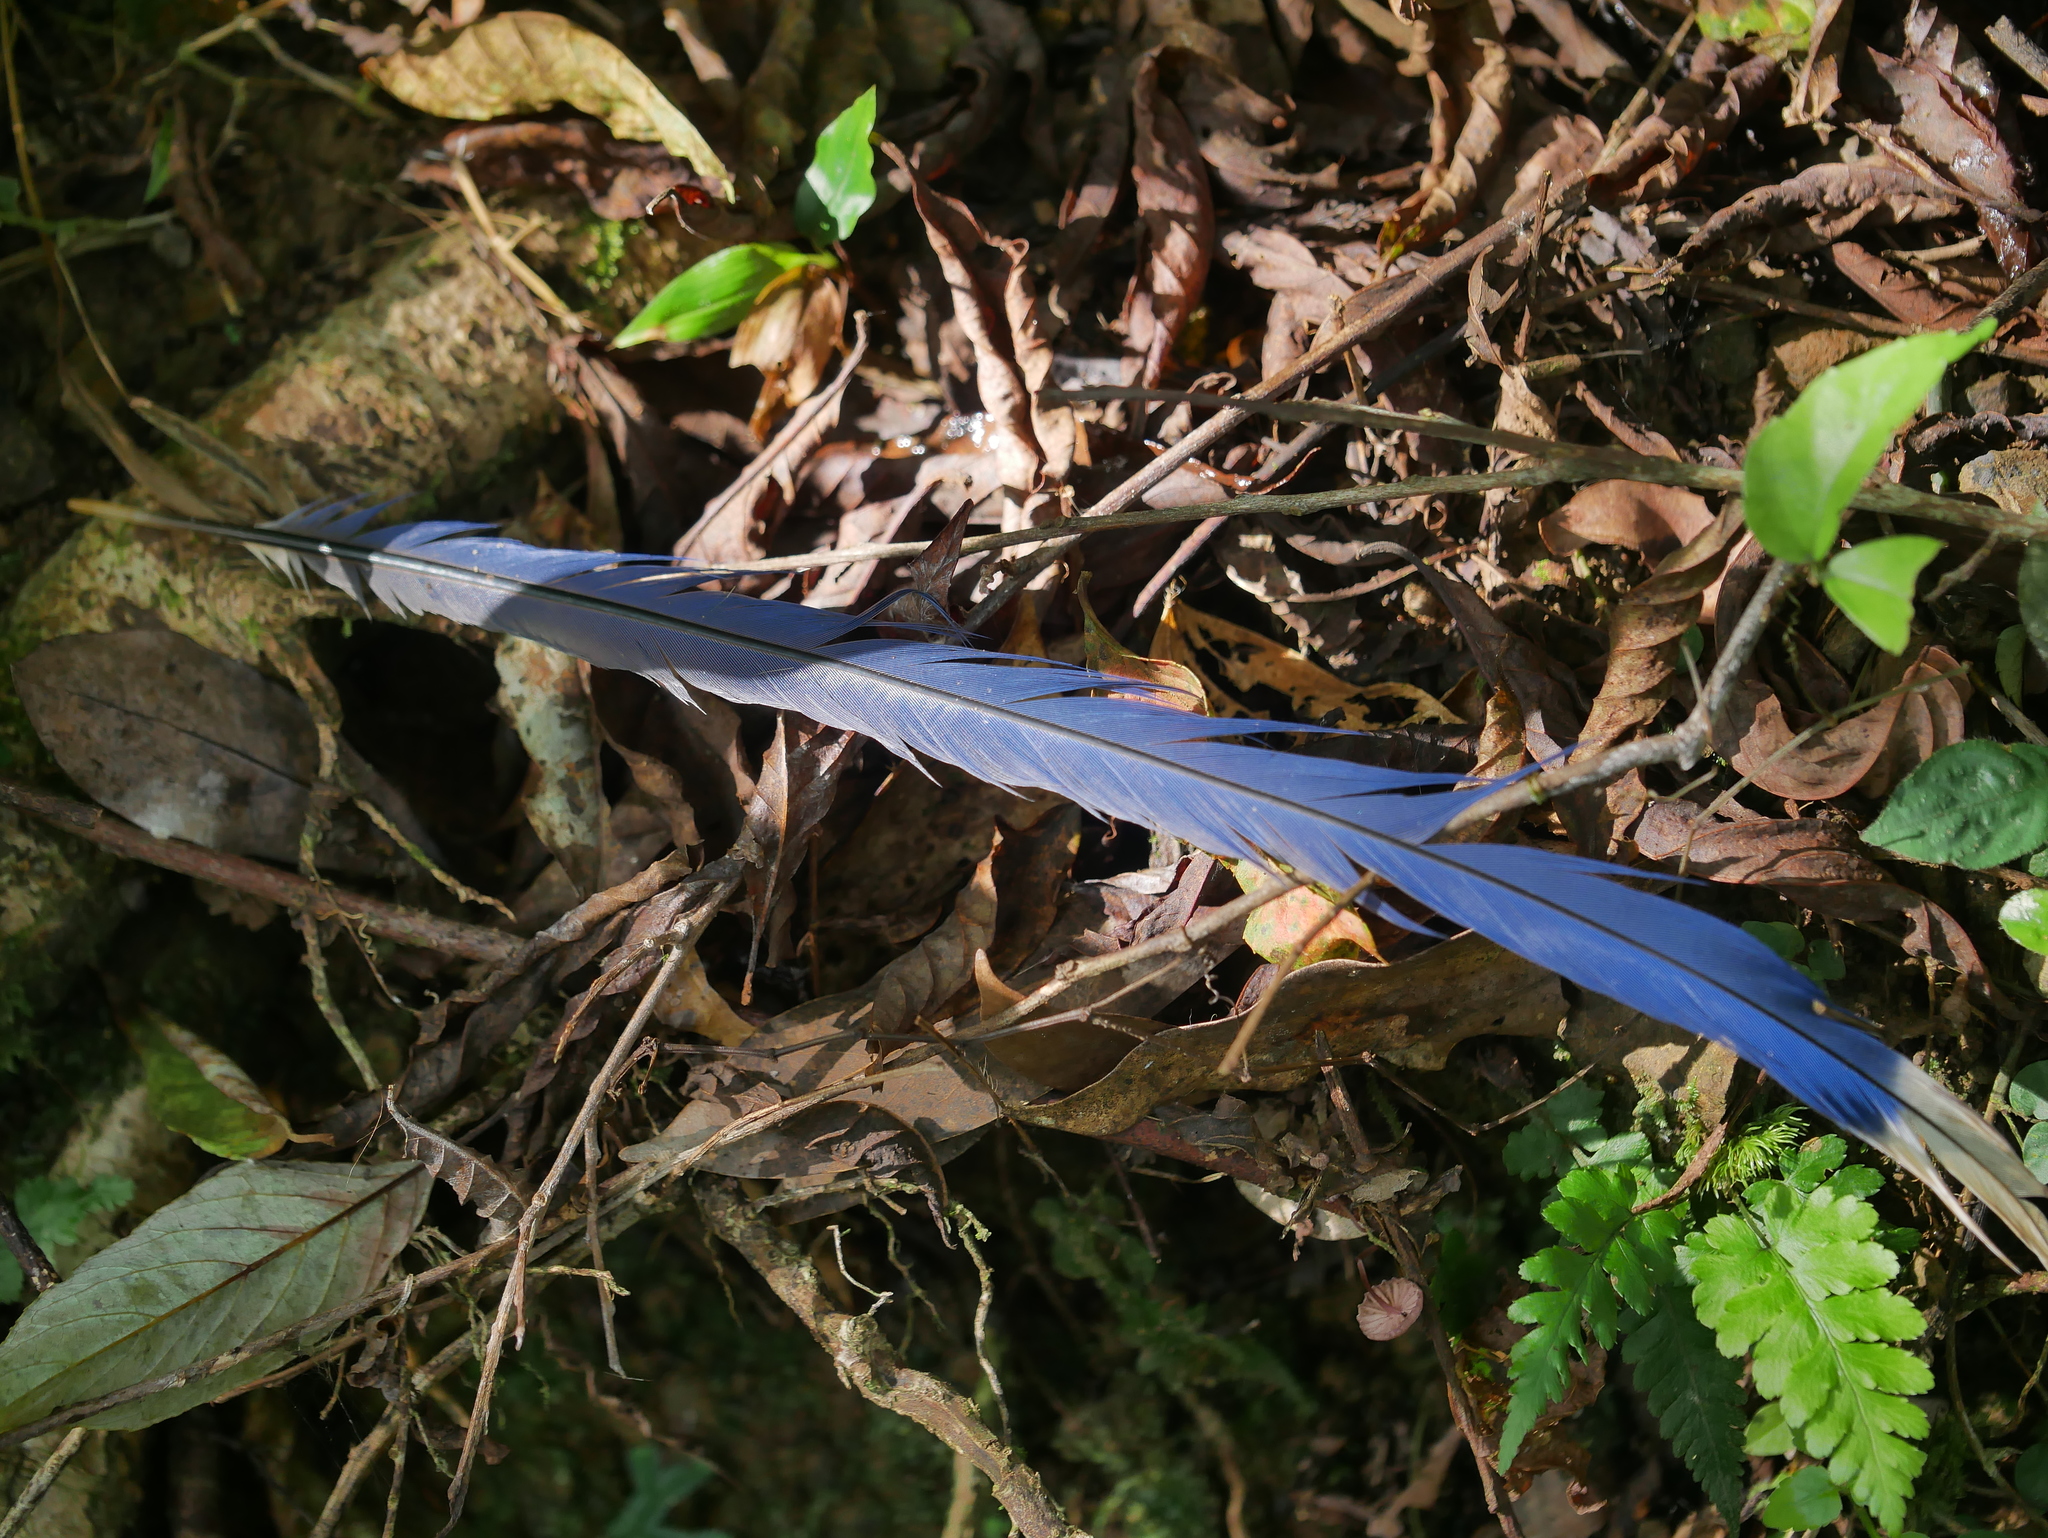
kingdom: Animalia
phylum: Chordata
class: Aves
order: Passeriformes
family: Corvidae
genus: Urocissa
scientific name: Urocissa caerulea
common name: Taiwan blue magpie
